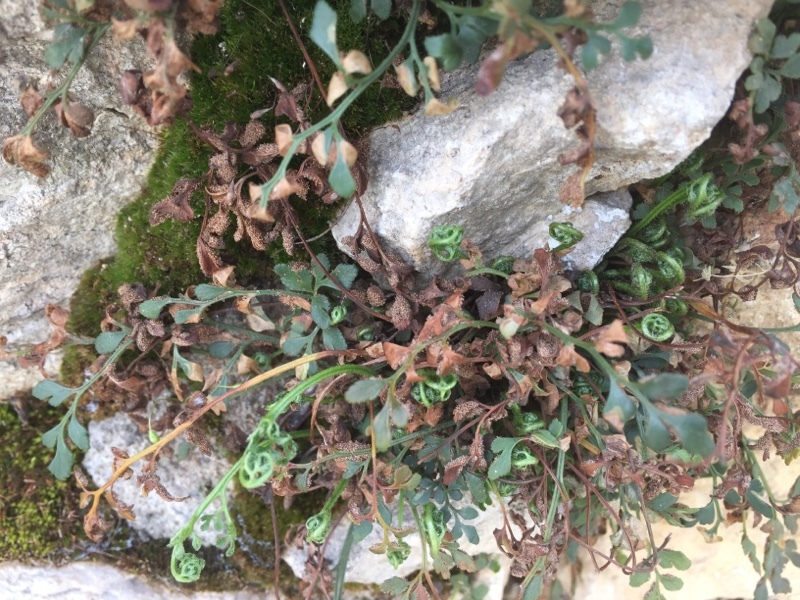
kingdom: Plantae
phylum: Tracheophyta
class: Polypodiopsida
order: Polypodiales
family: Aspleniaceae
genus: Asplenium
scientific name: Asplenium ruta-muraria
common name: Wall-rue
